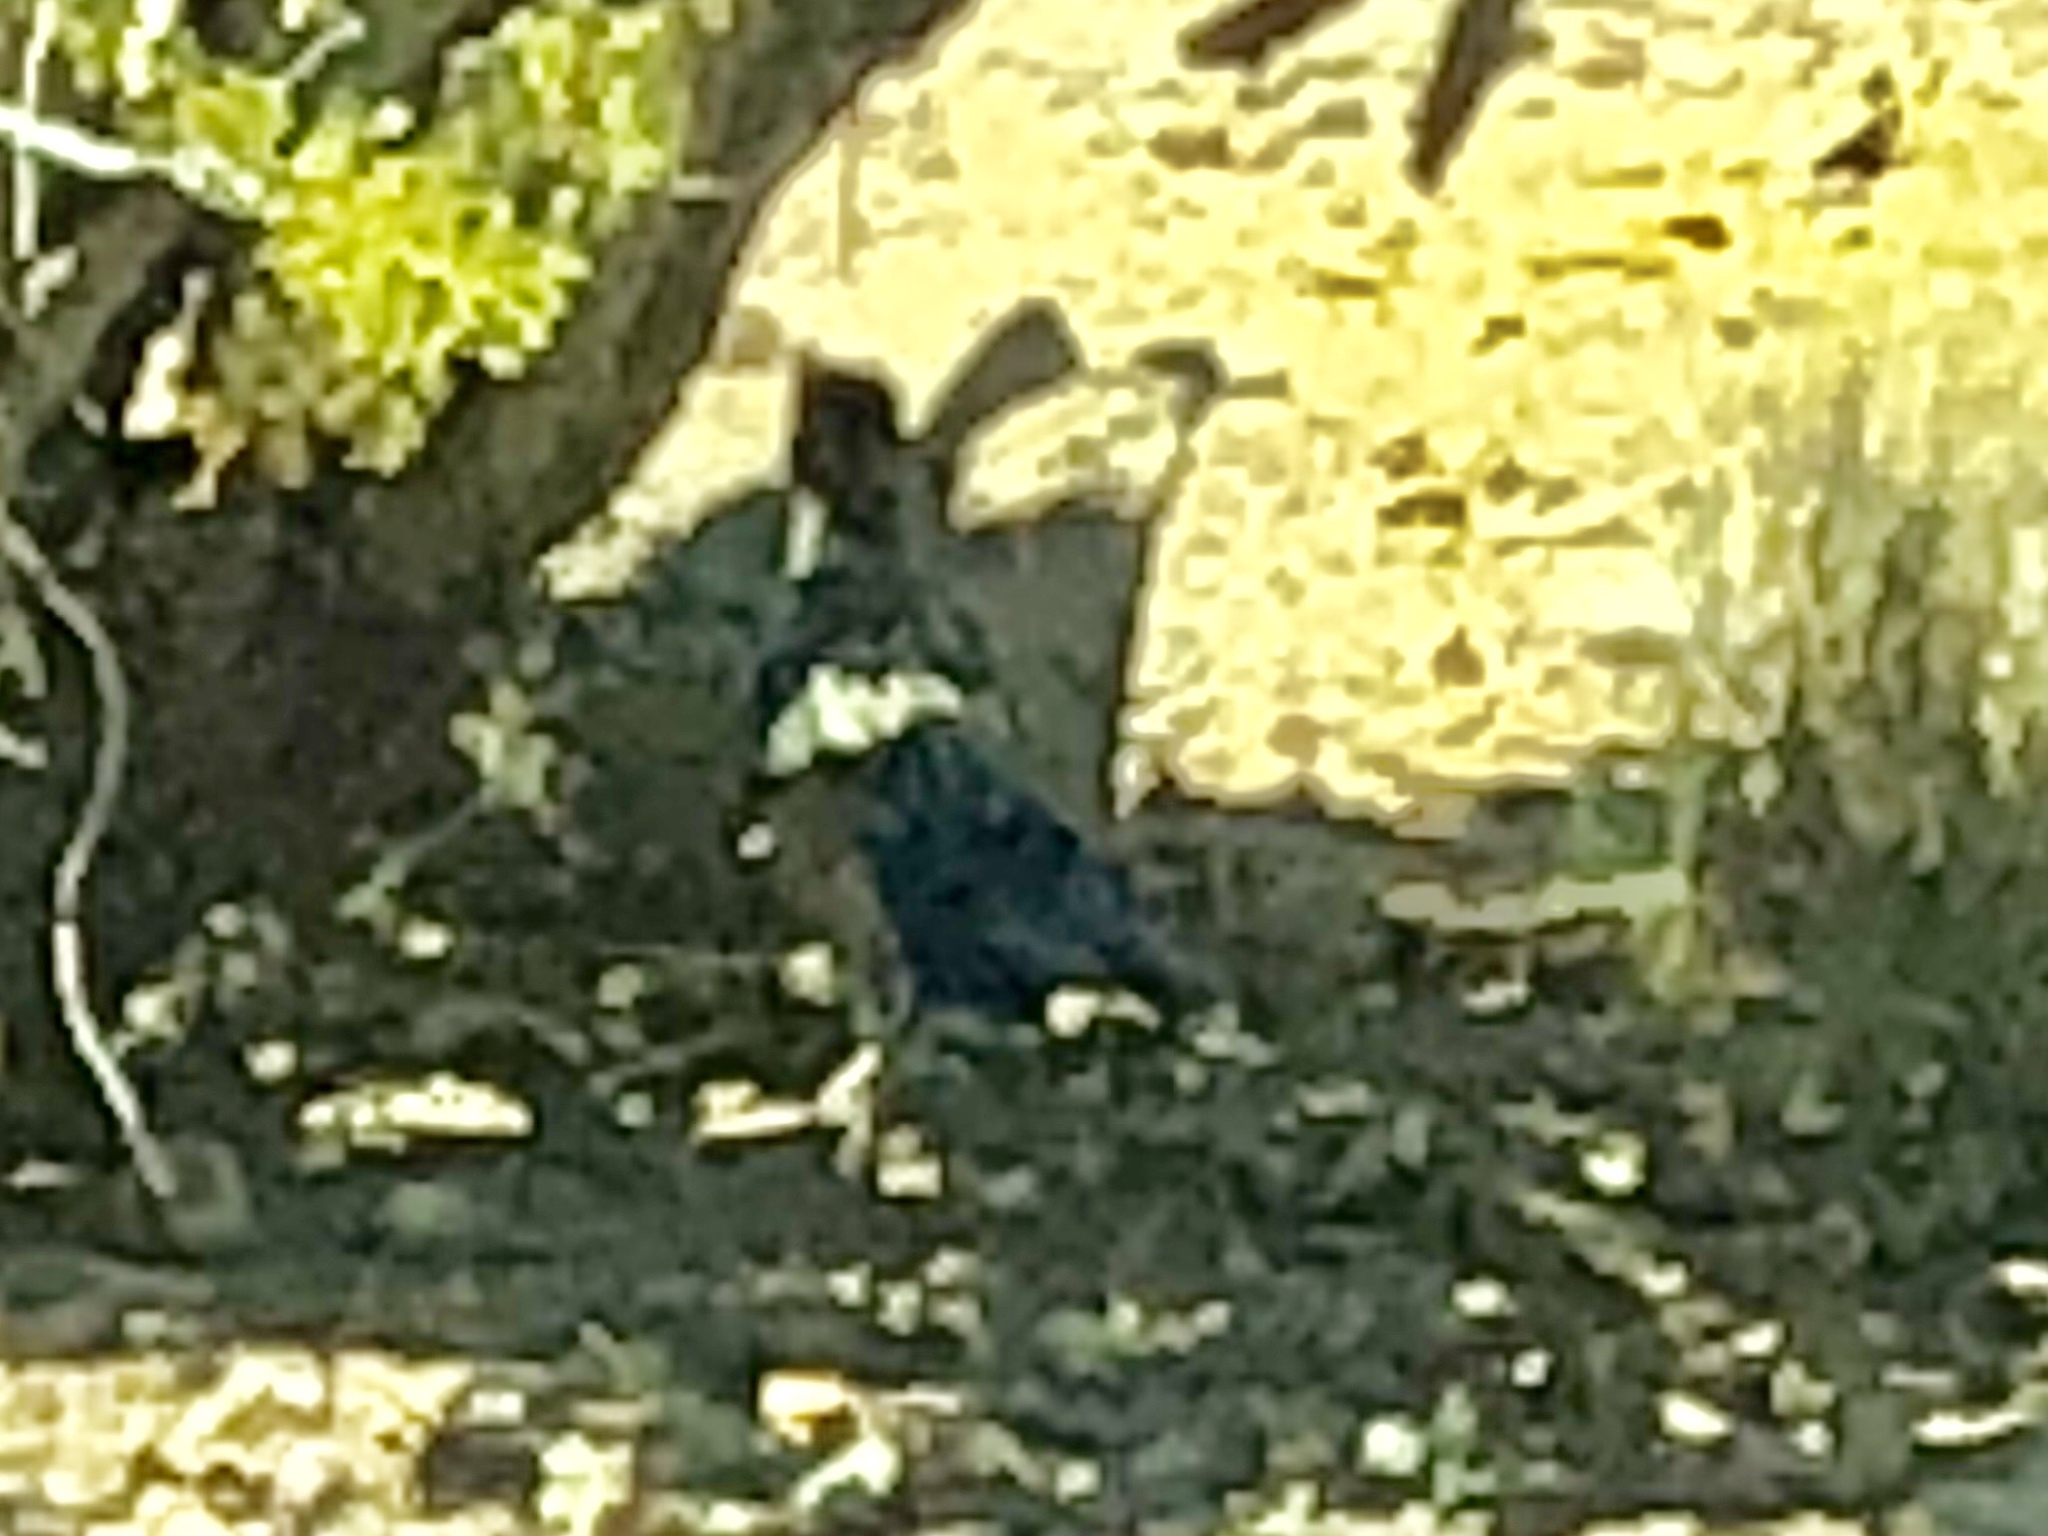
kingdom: Animalia
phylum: Chordata
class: Aves
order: Cuculiformes
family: Cuculidae
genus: Geococcyx
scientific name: Geococcyx californianus
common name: Greater roadrunner
